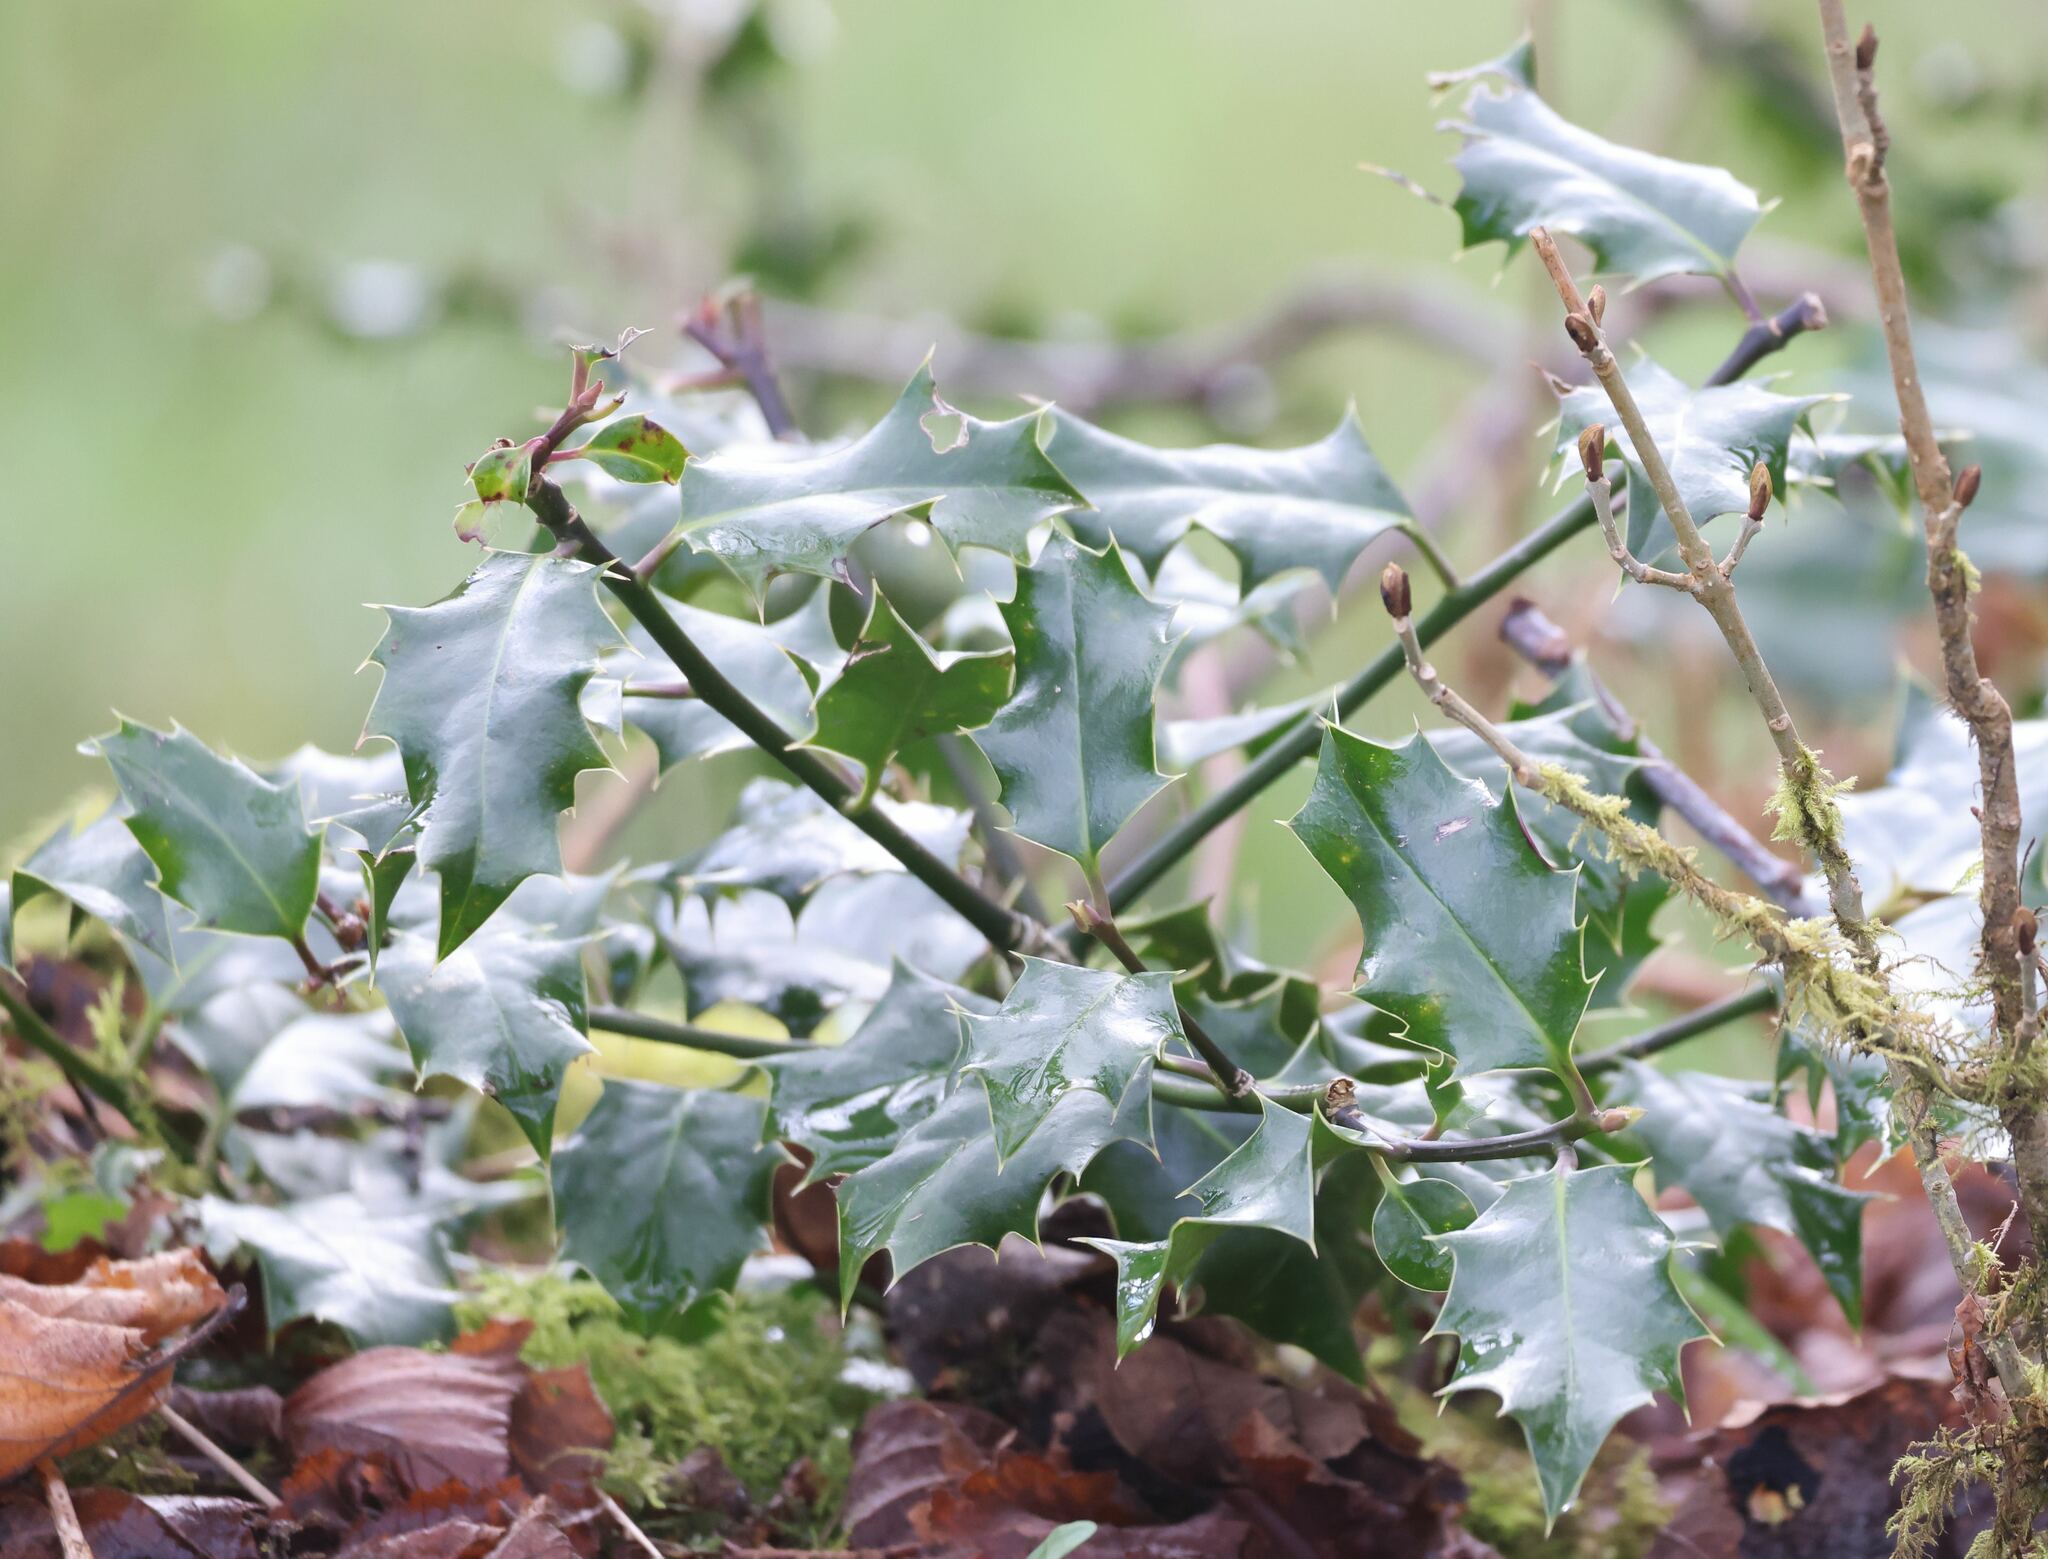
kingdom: Plantae
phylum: Tracheophyta
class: Magnoliopsida
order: Aquifoliales
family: Aquifoliaceae
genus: Ilex
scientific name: Ilex aquifolium
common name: English holly
